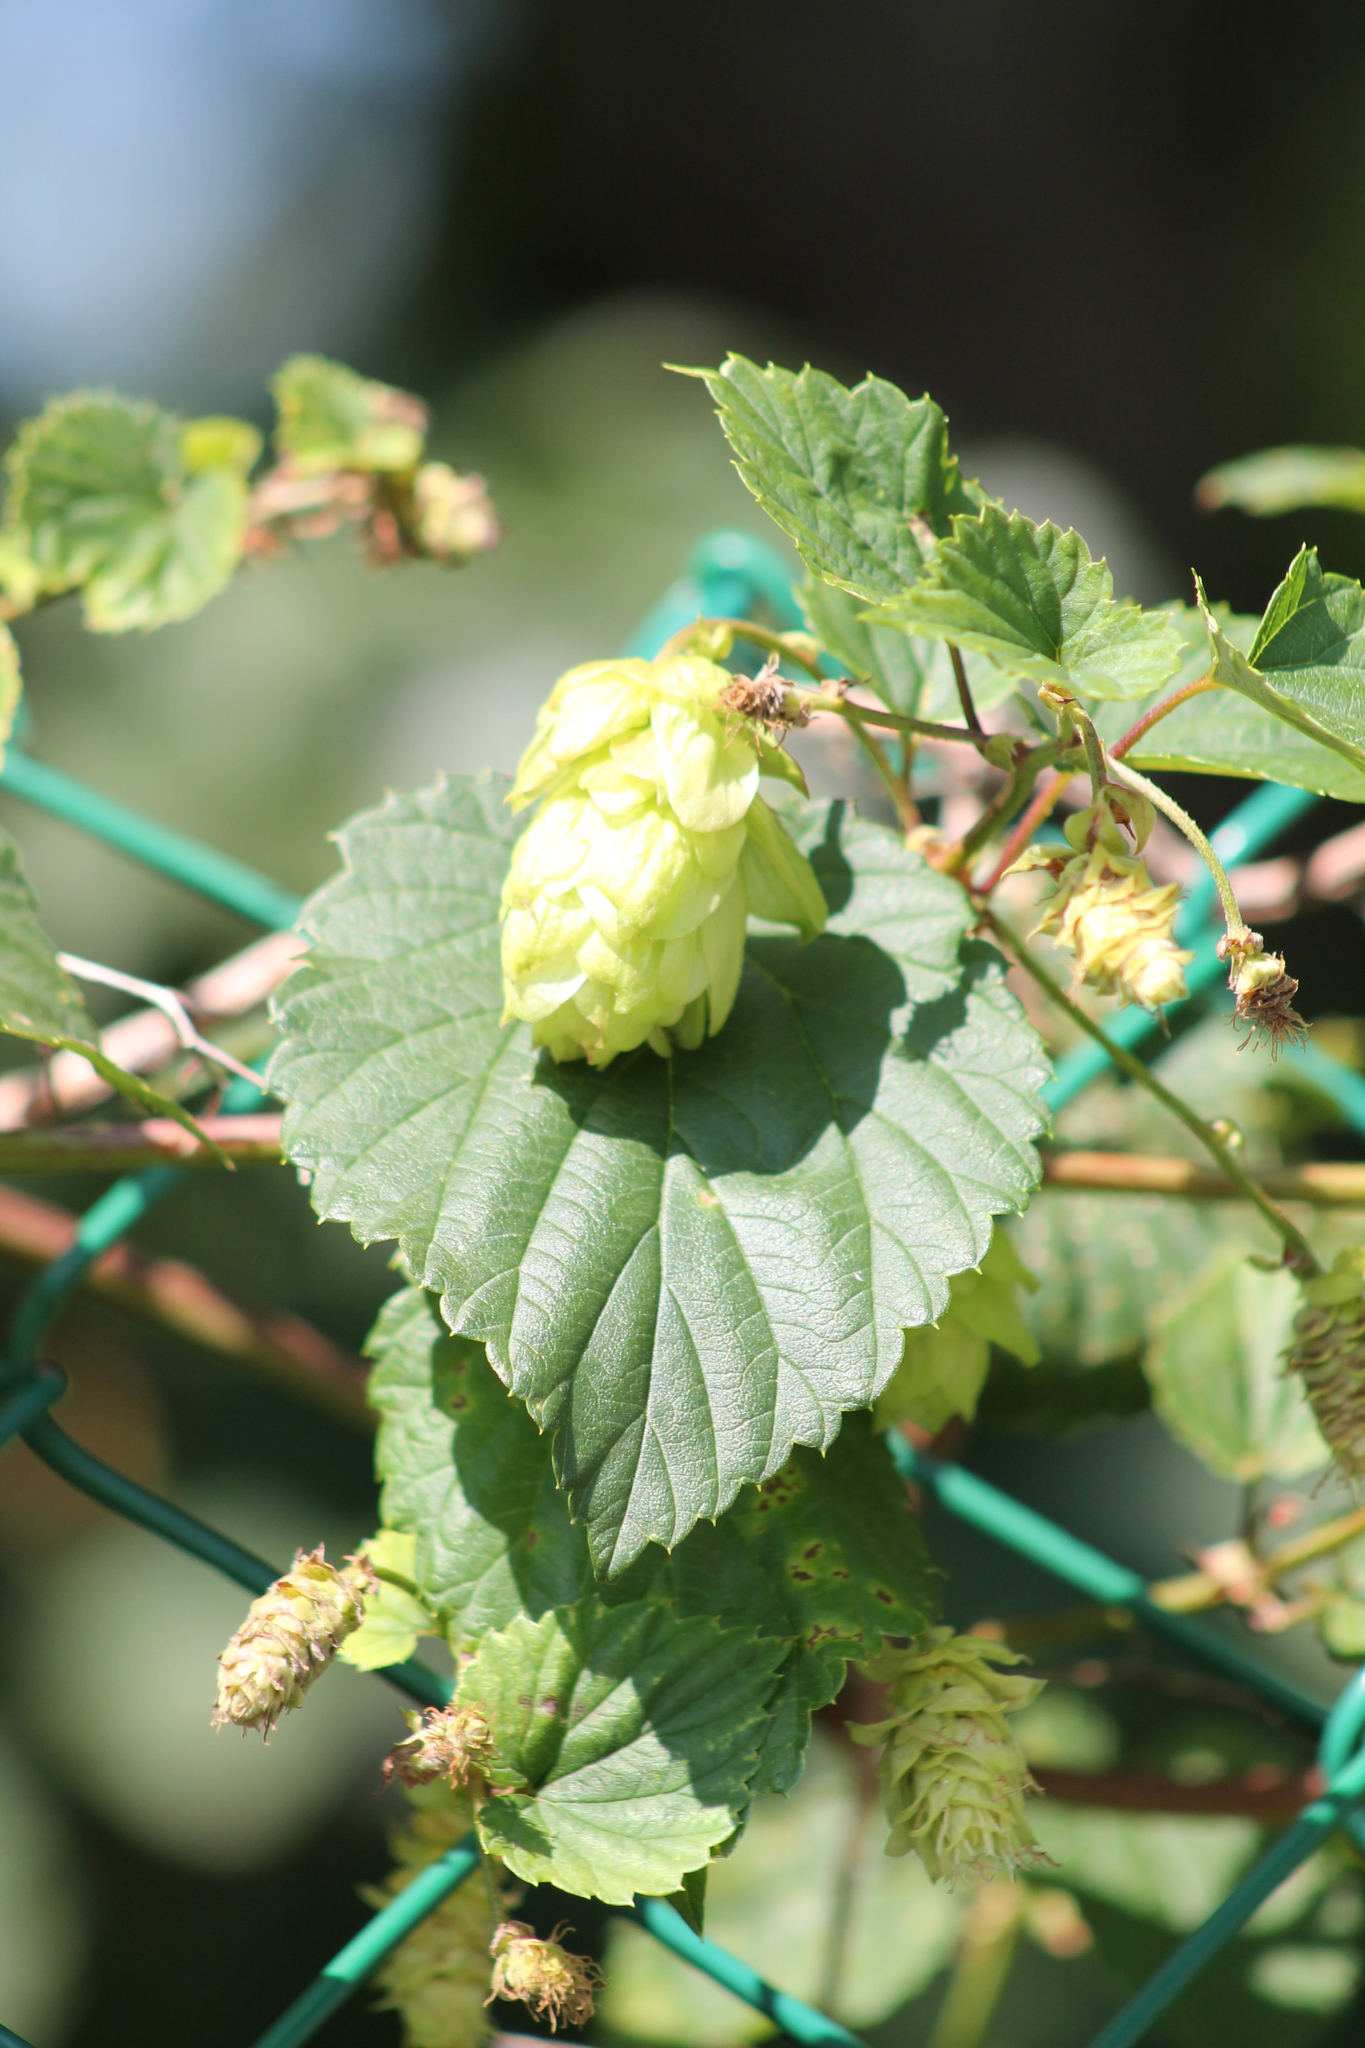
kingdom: Plantae
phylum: Tracheophyta
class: Magnoliopsida
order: Rosales
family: Cannabaceae
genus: Humulus
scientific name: Humulus lupulus
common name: Hop
